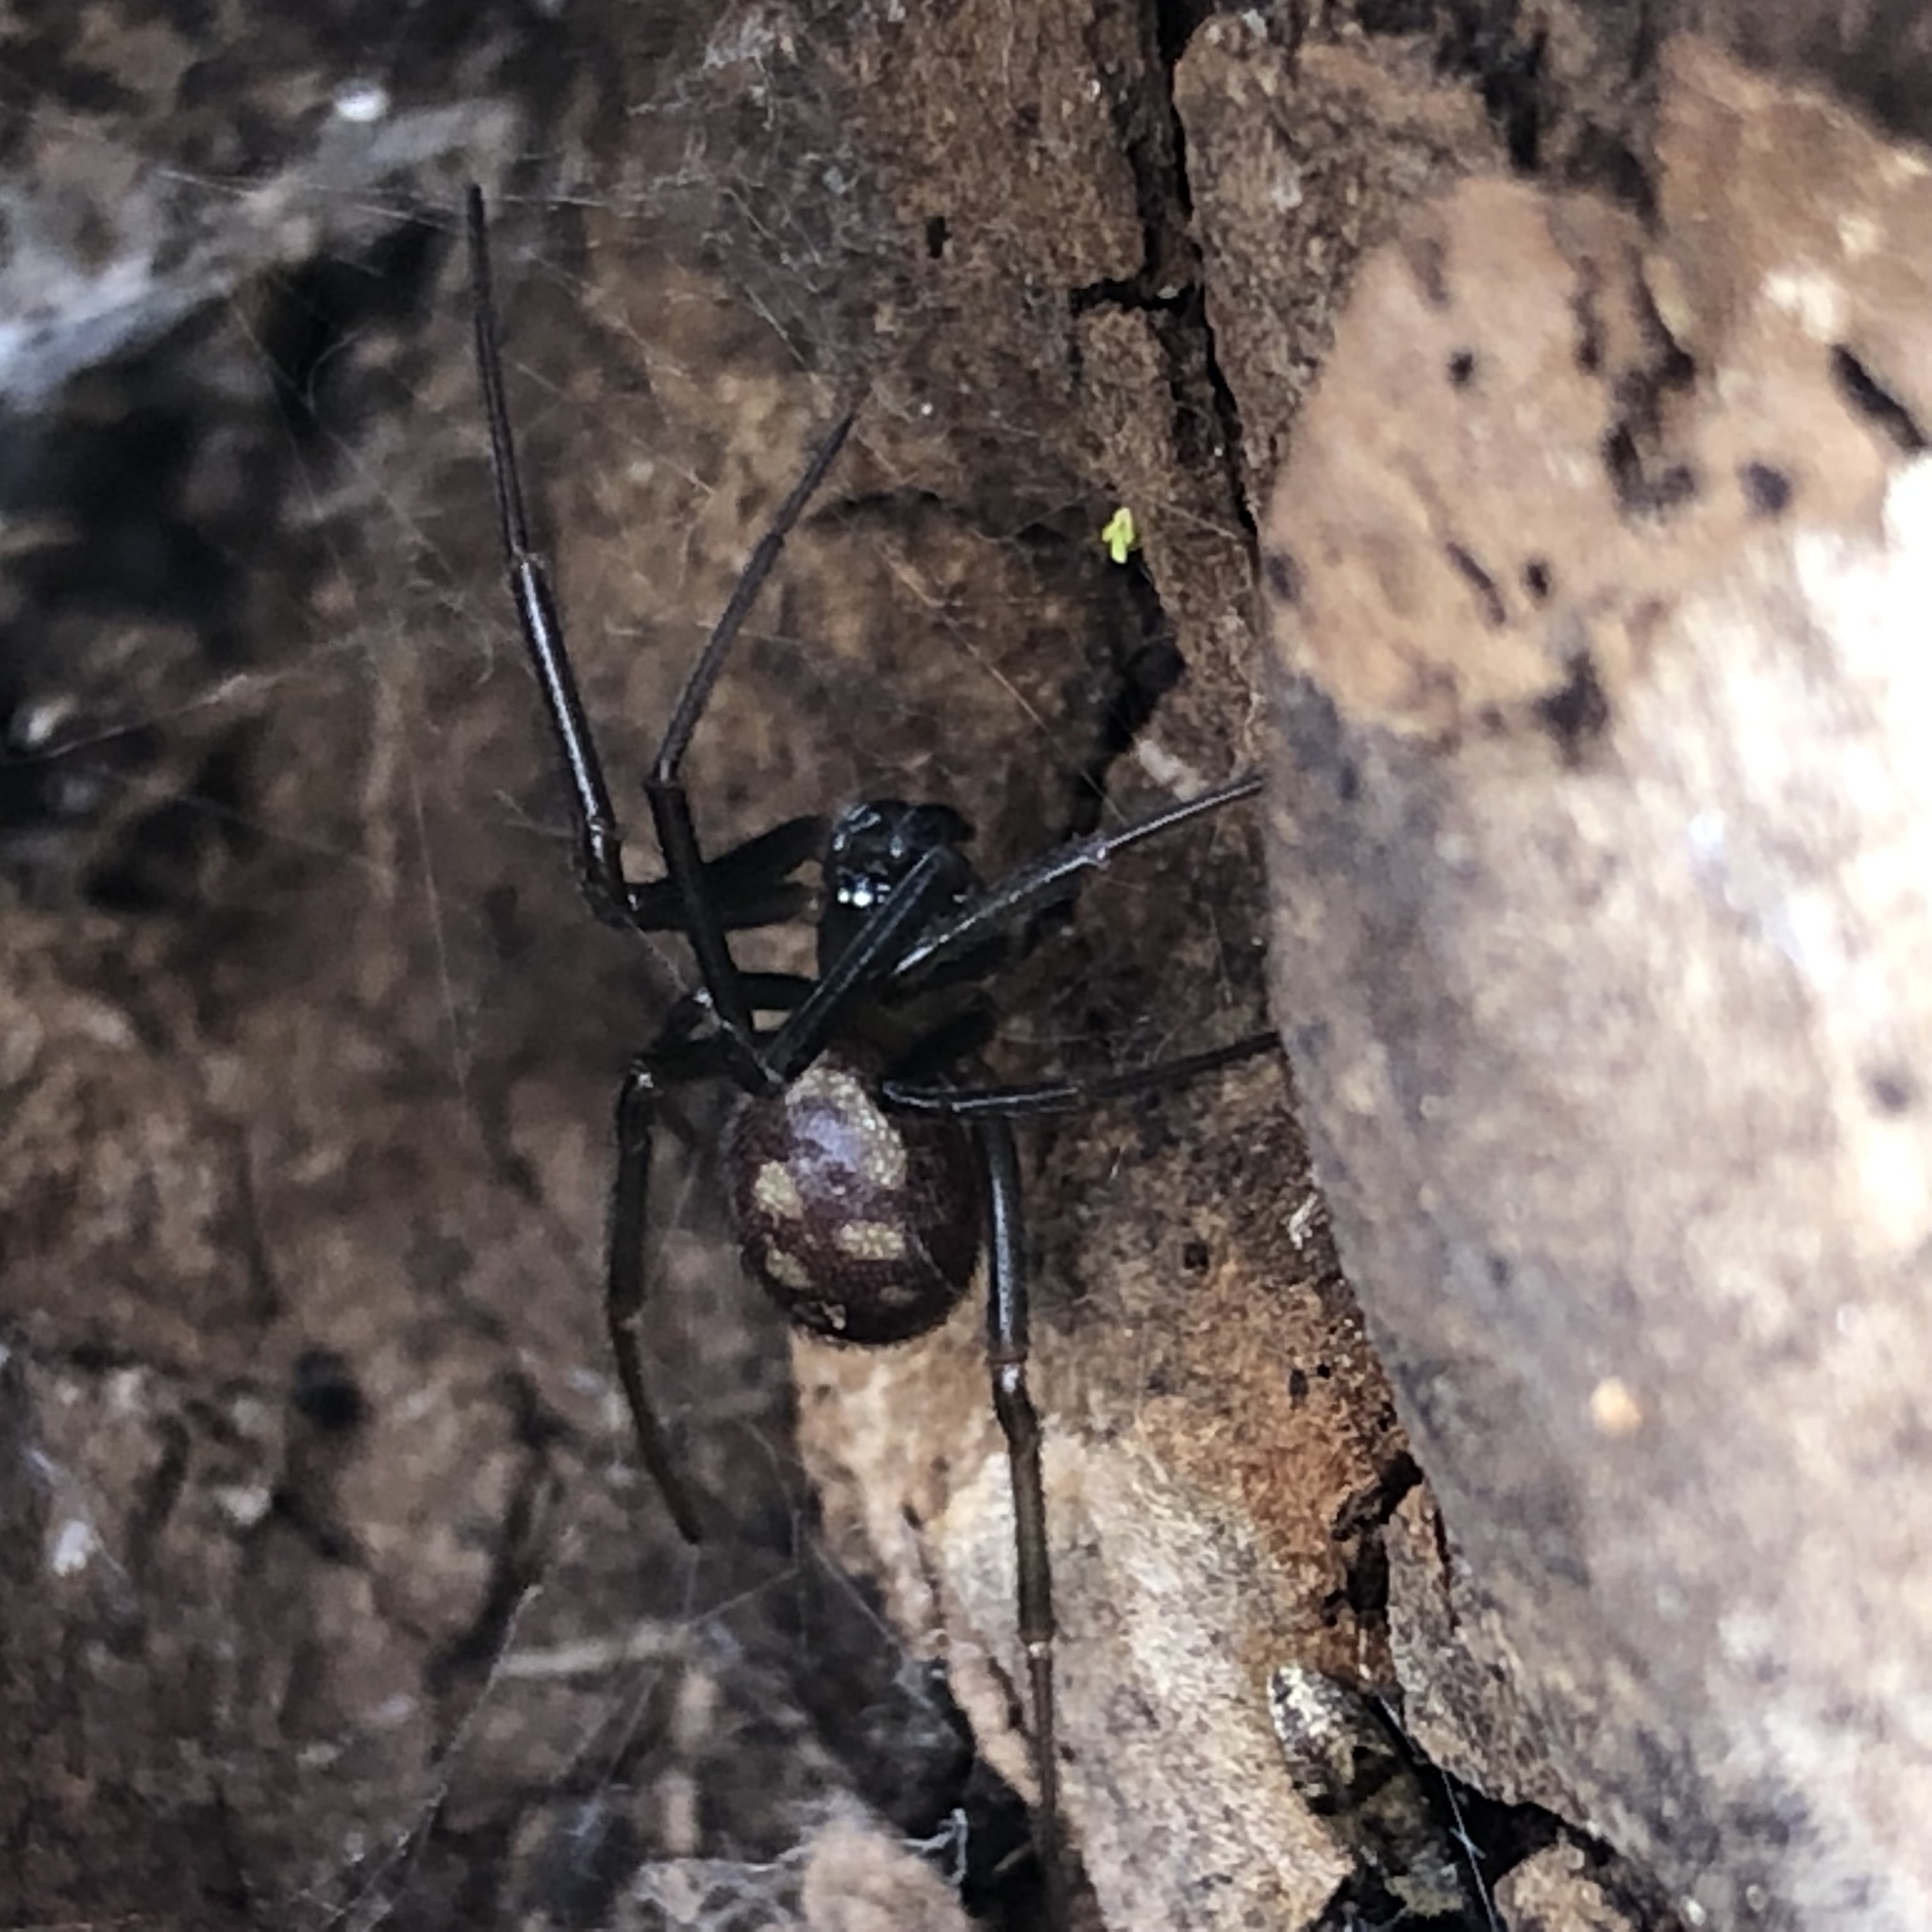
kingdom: Animalia
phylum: Arthropoda
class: Arachnida
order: Araneae
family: Theridiidae
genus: Steatoda
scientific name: Steatoda grossa
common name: False black widow
